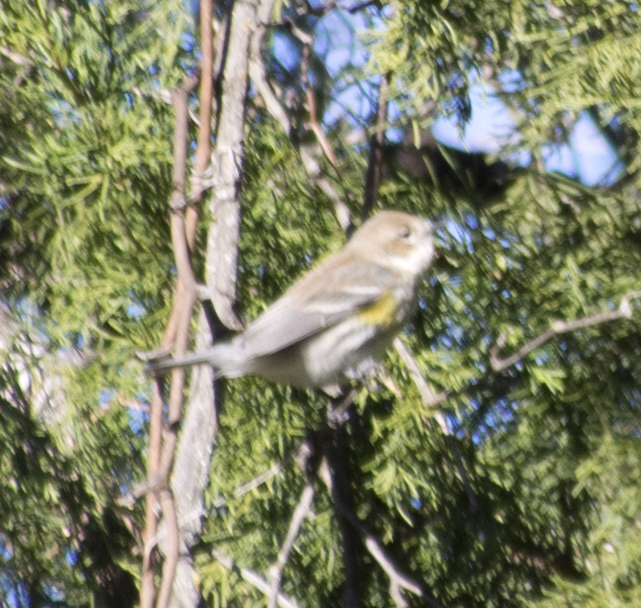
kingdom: Animalia
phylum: Chordata
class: Aves
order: Passeriformes
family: Parulidae
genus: Setophaga
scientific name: Setophaga coronata
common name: Myrtle warbler
